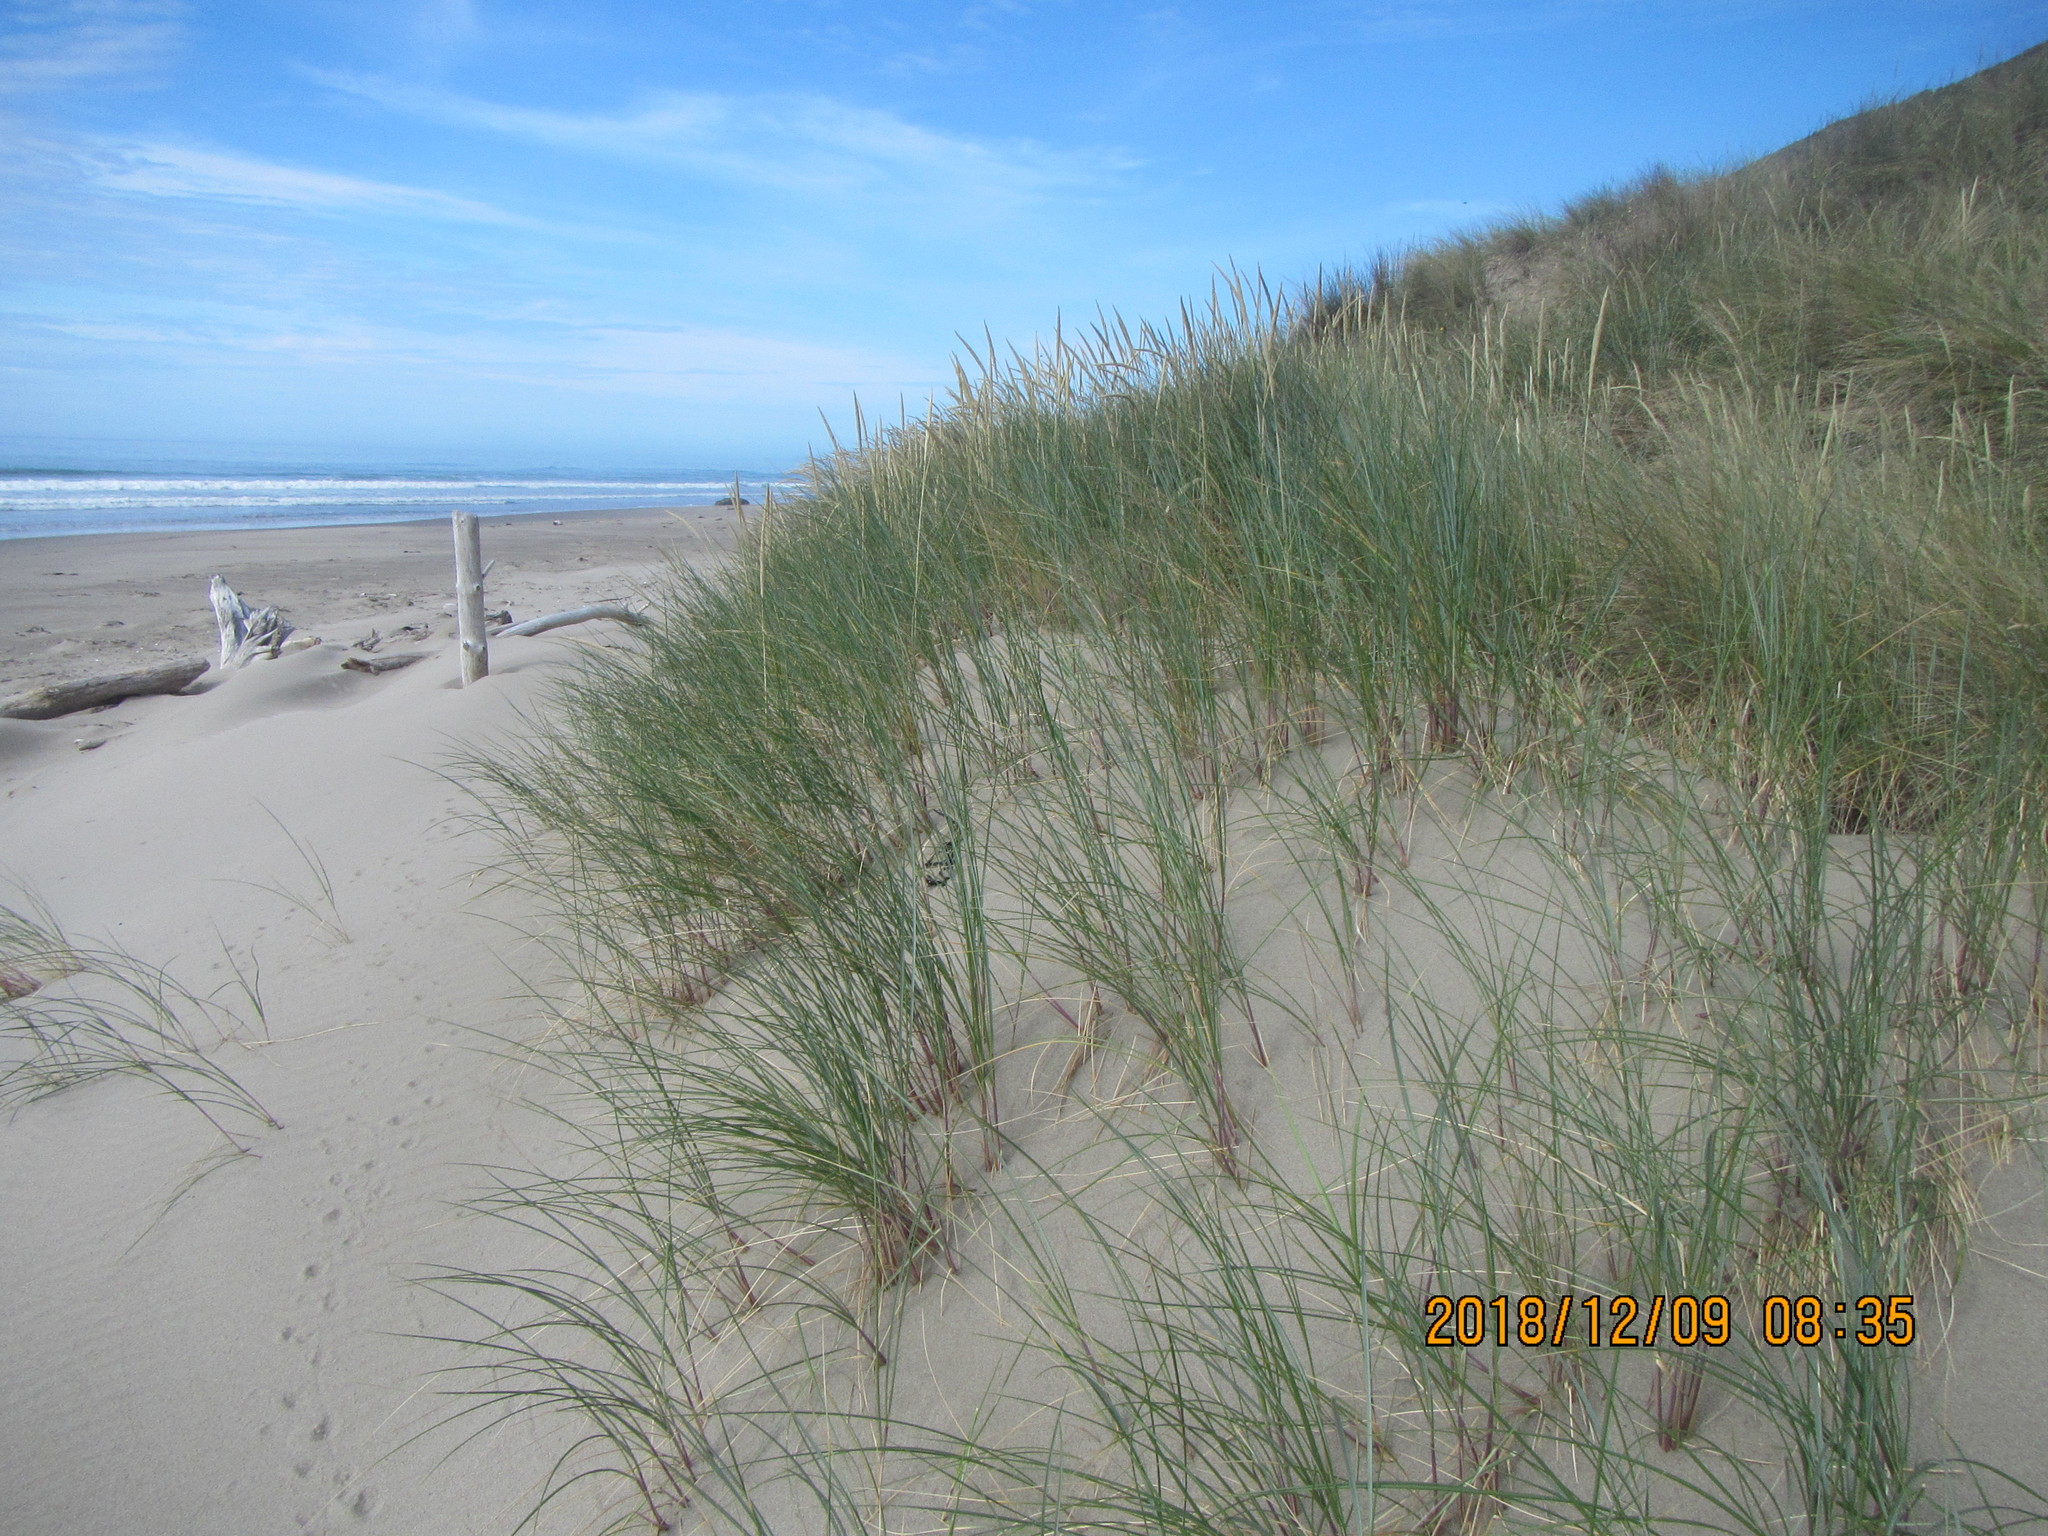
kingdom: Plantae
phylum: Tracheophyta
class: Liliopsida
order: Poales
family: Poaceae
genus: Calamagrostis
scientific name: Calamagrostis arenaria
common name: European beachgrass
